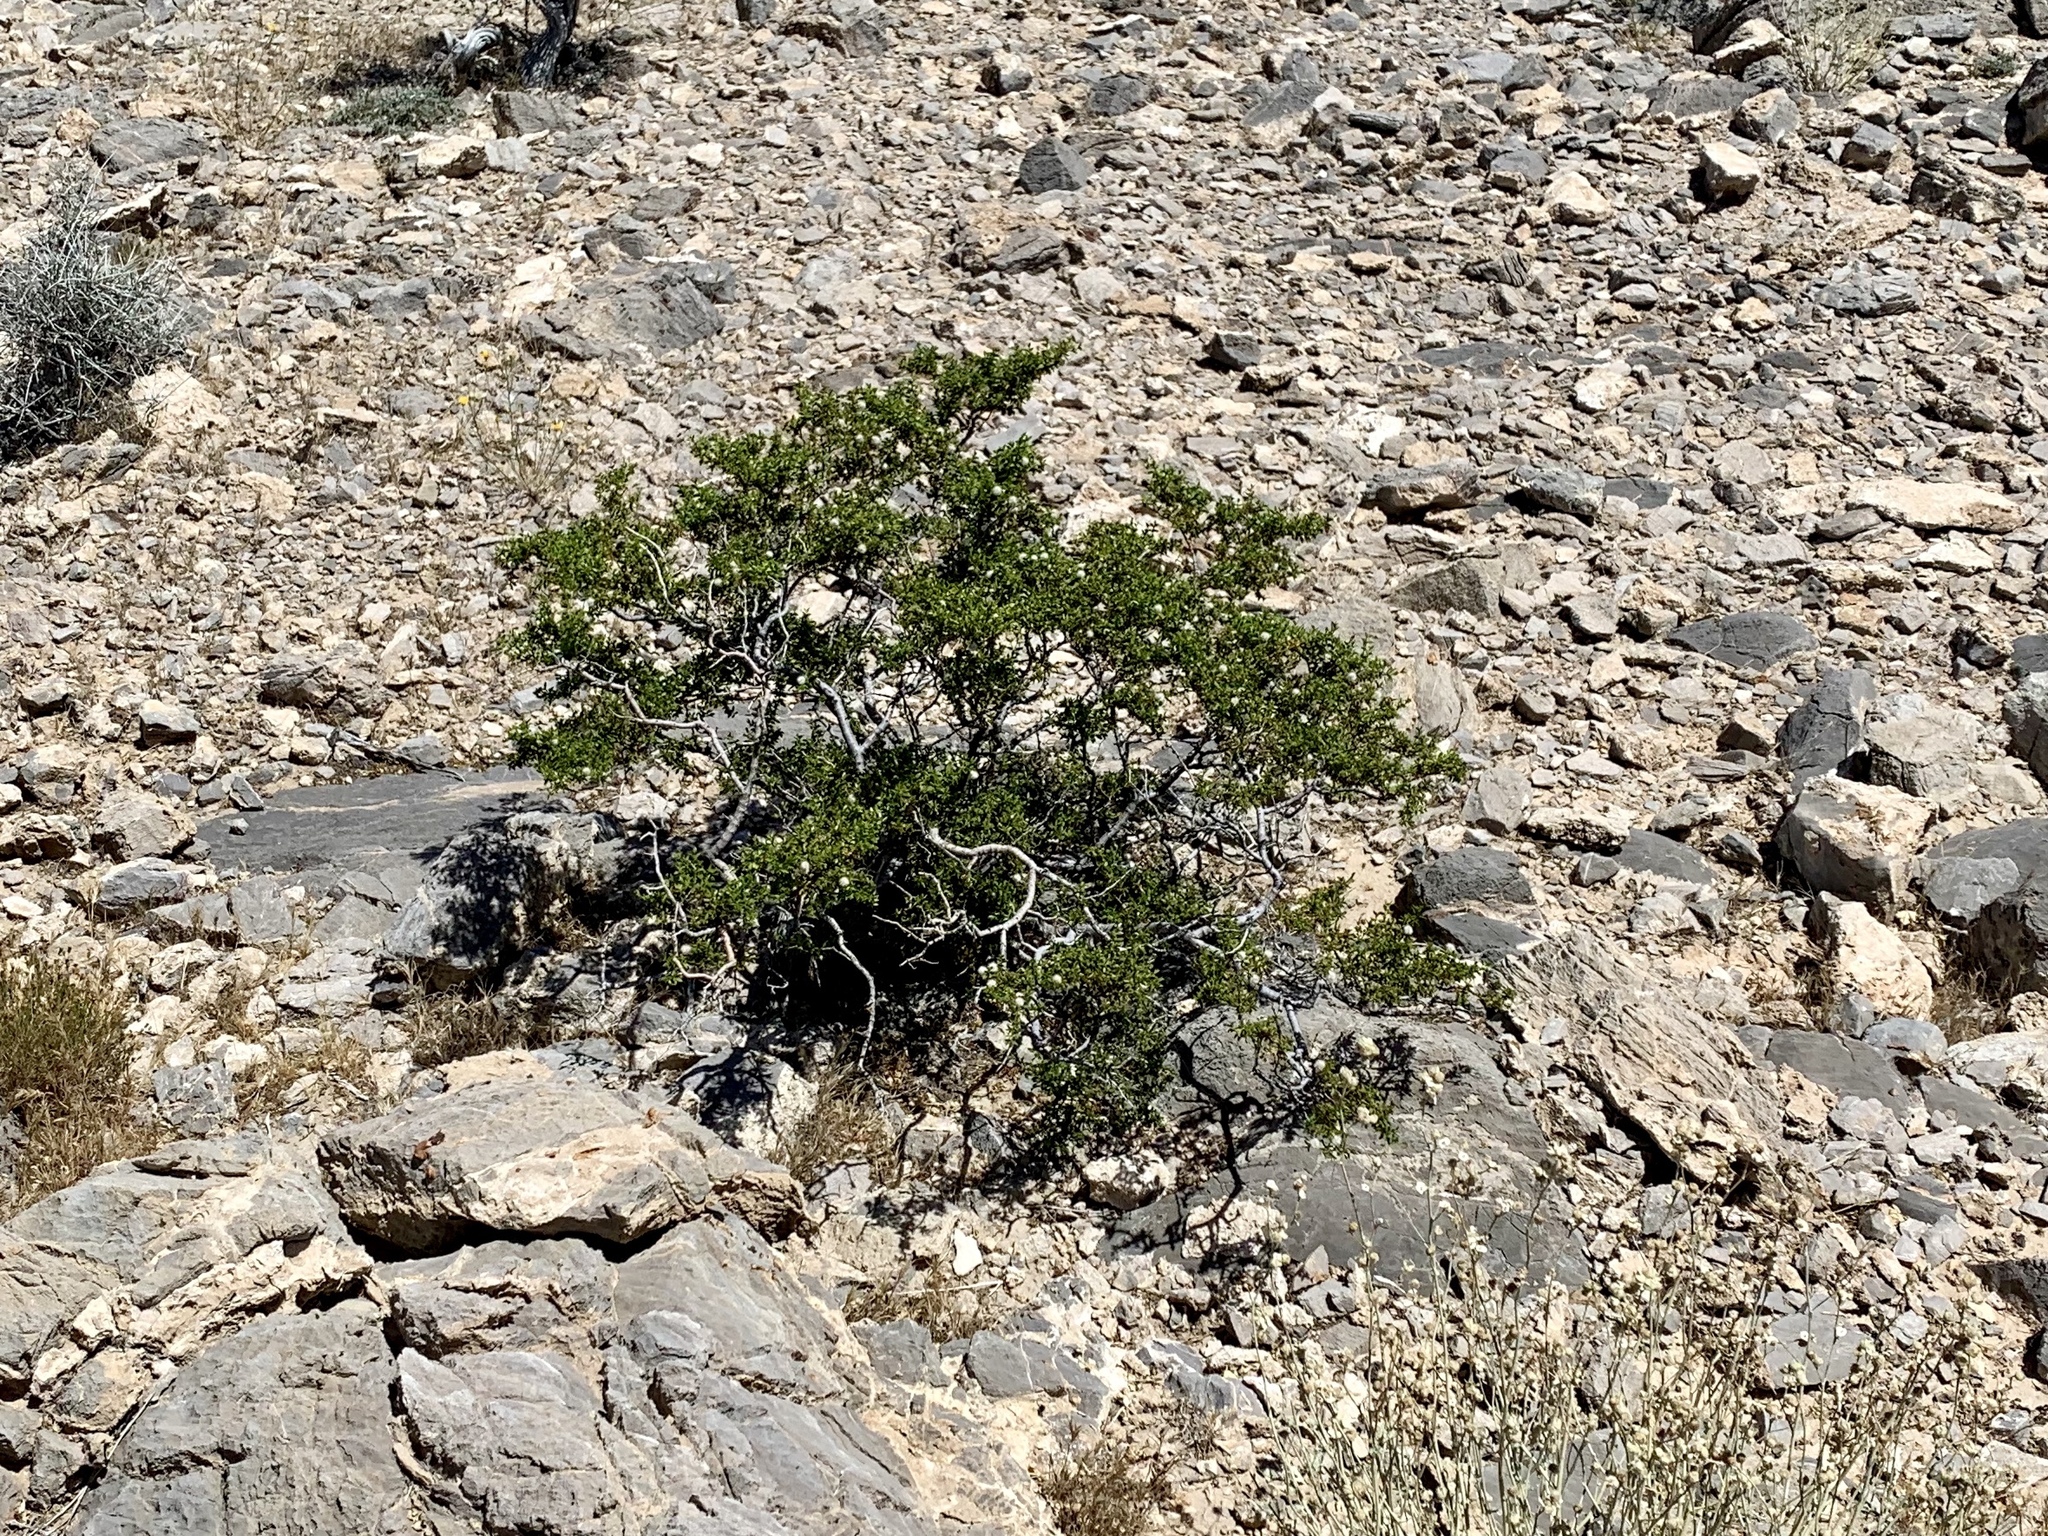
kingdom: Plantae
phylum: Tracheophyta
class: Magnoliopsida
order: Zygophyllales
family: Zygophyllaceae
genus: Larrea
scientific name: Larrea tridentata
